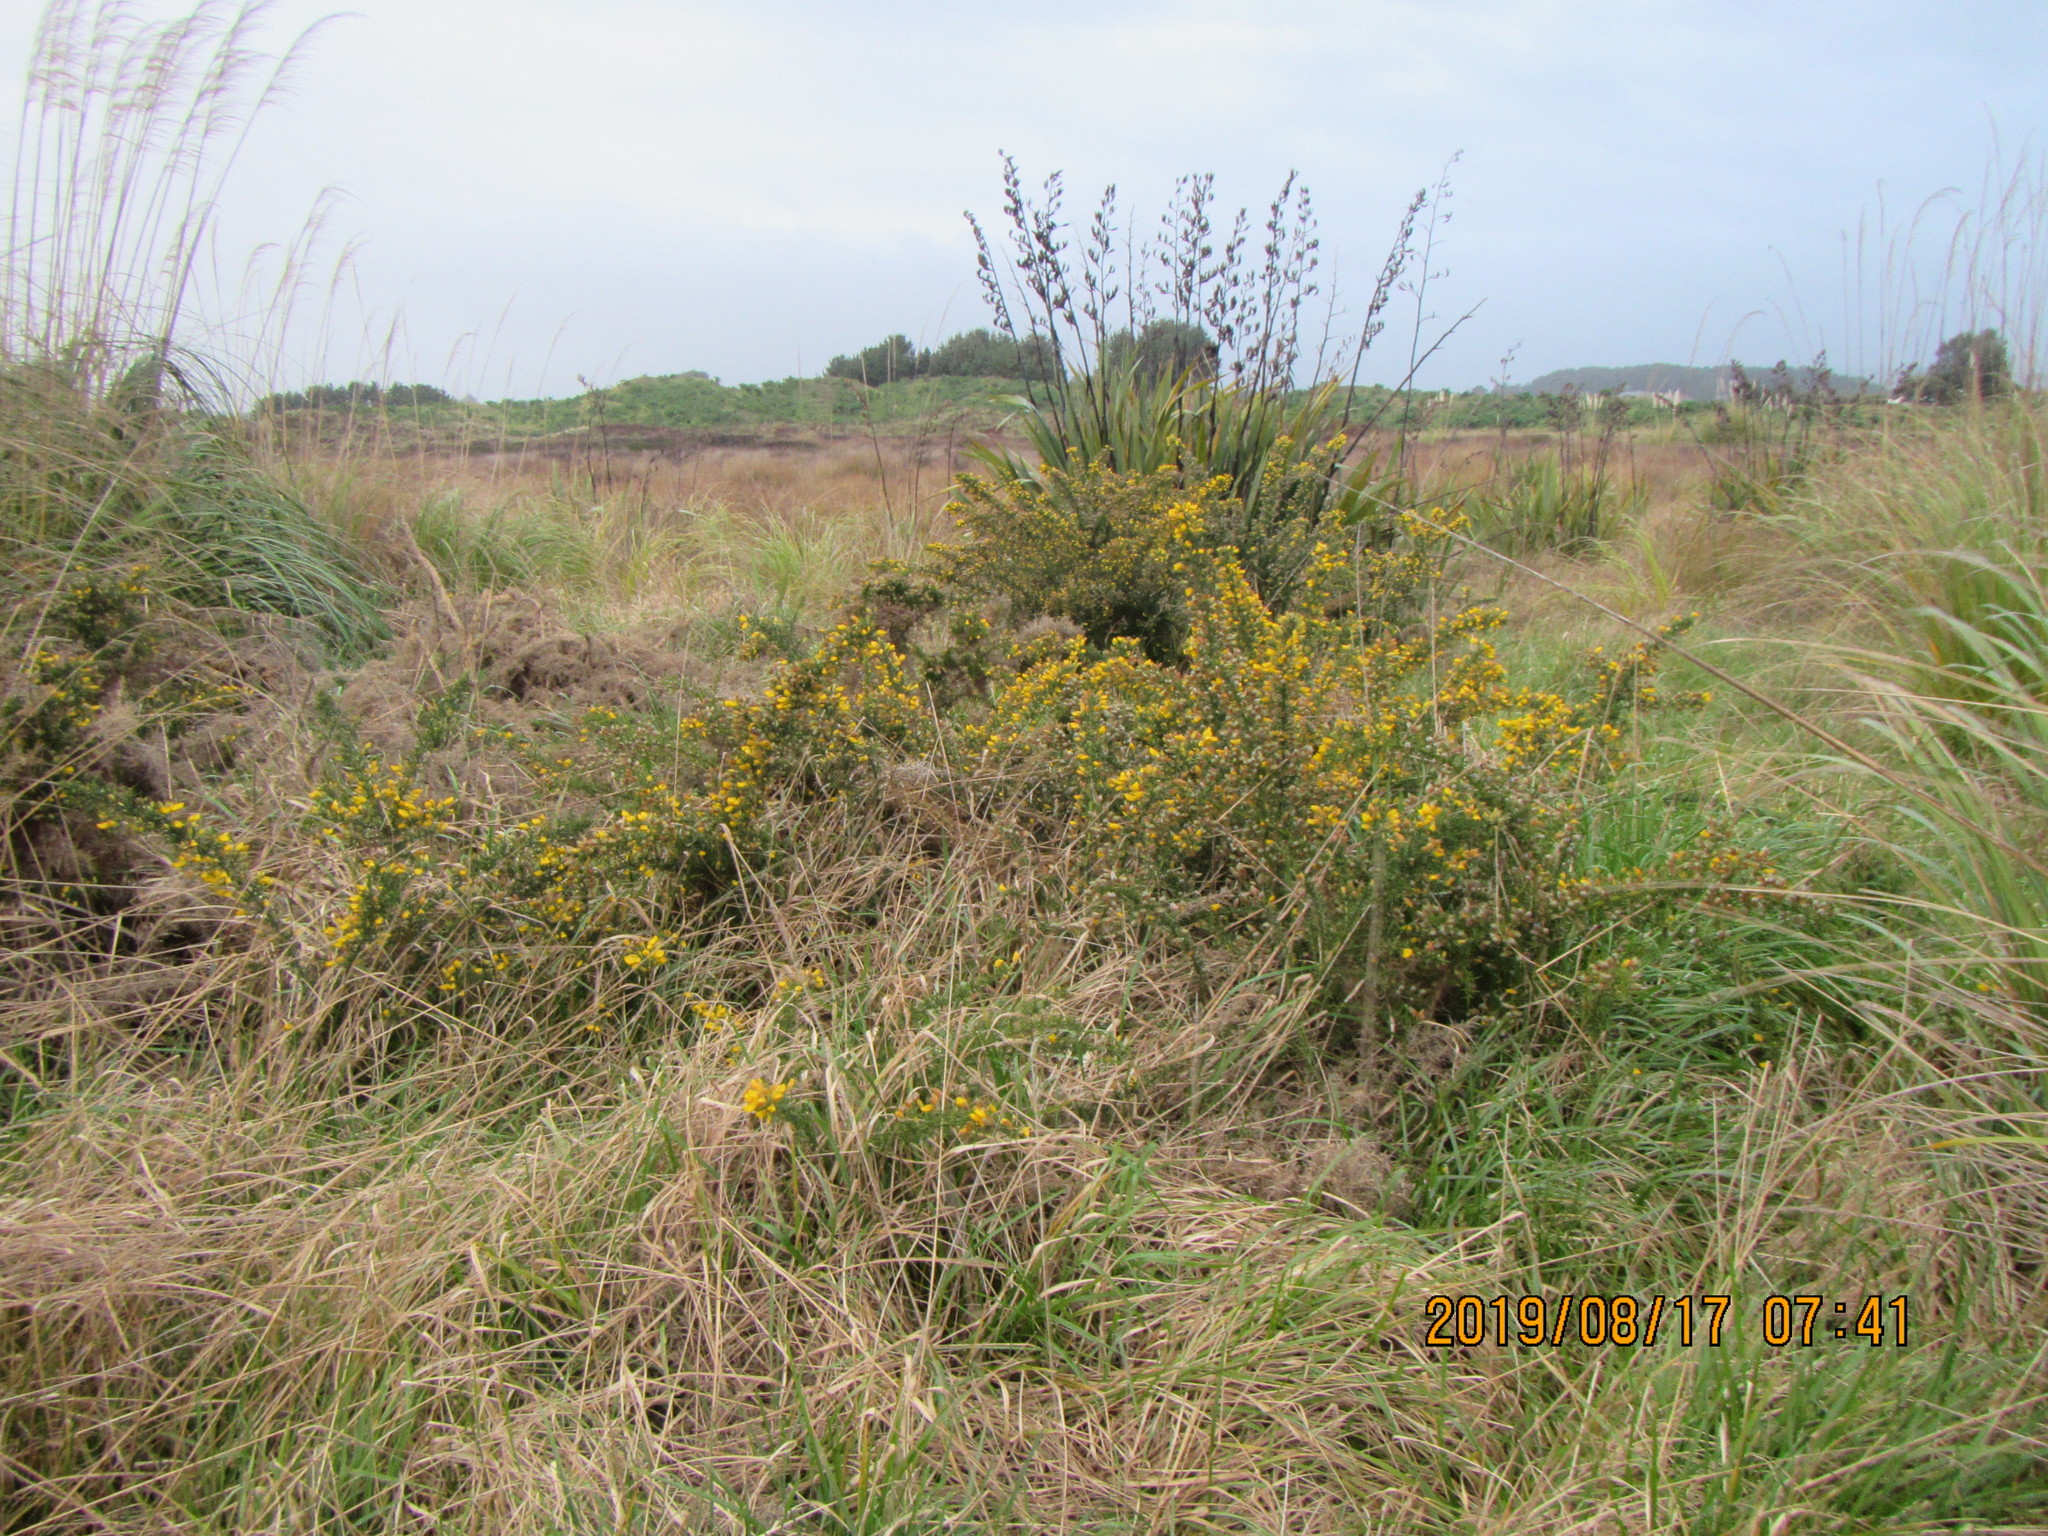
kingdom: Plantae
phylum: Tracheophyta
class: Magnoliopsida
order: Fabales
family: Fabaceae
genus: Ulex
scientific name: Ulex europaeus
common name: Common gorse
